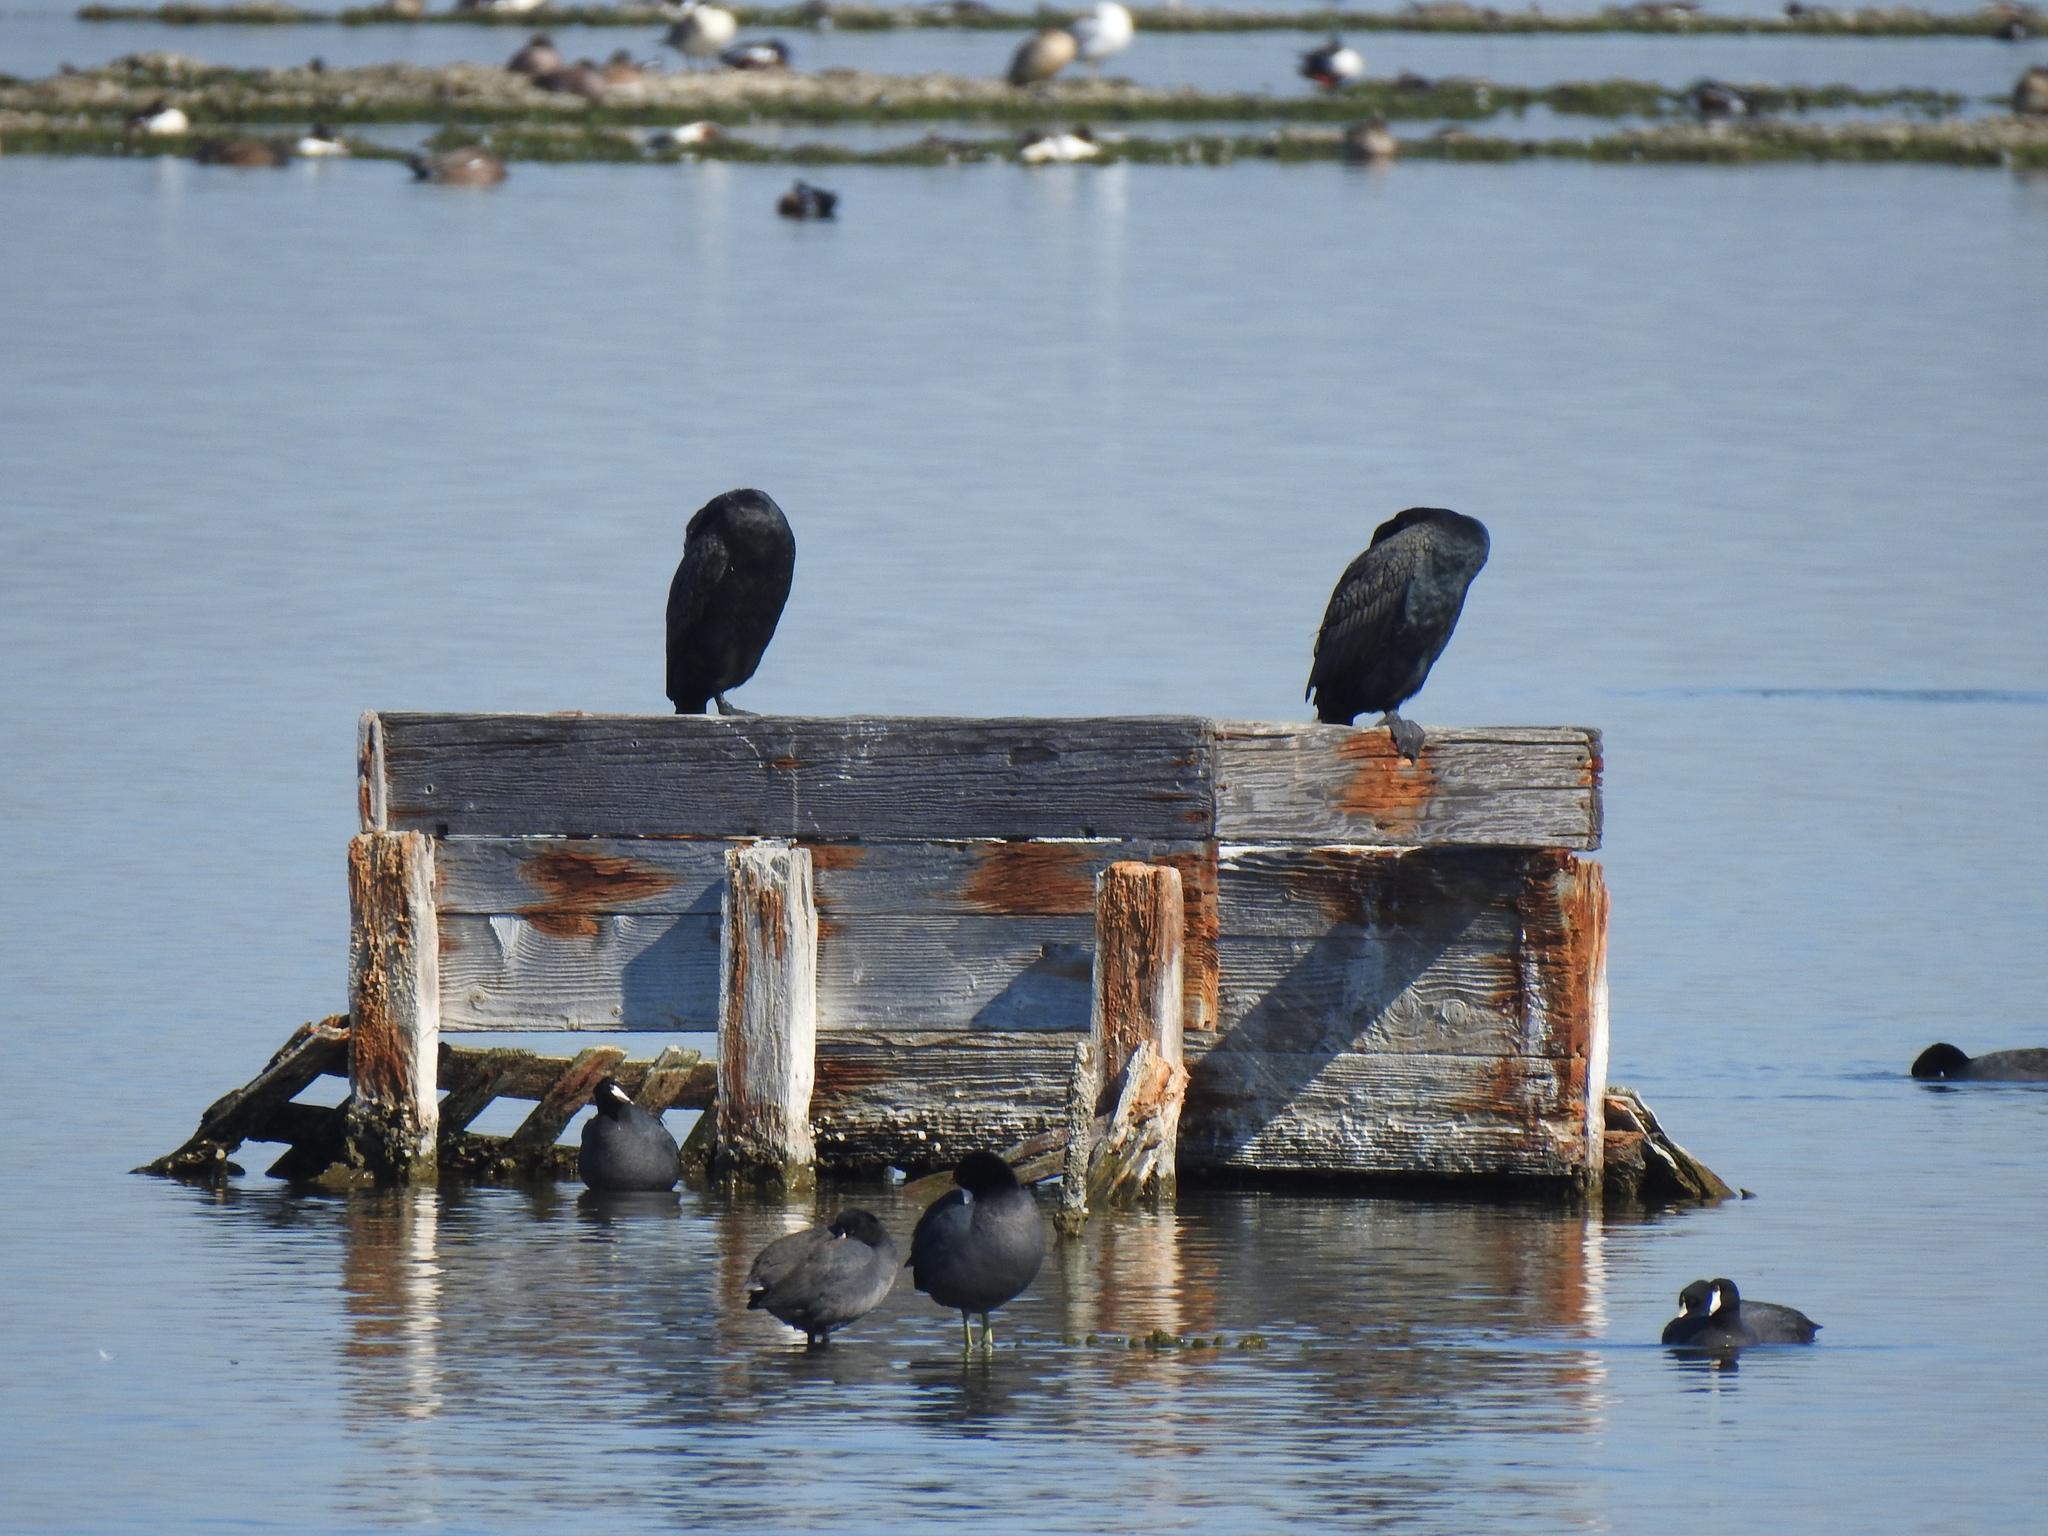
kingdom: Animalia
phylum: Chordata
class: Aves
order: Suliformes
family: Phalacrocoracidae
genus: Phalacrocorax
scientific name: Phalacrocorax auritus
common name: Double-crested cormorant
